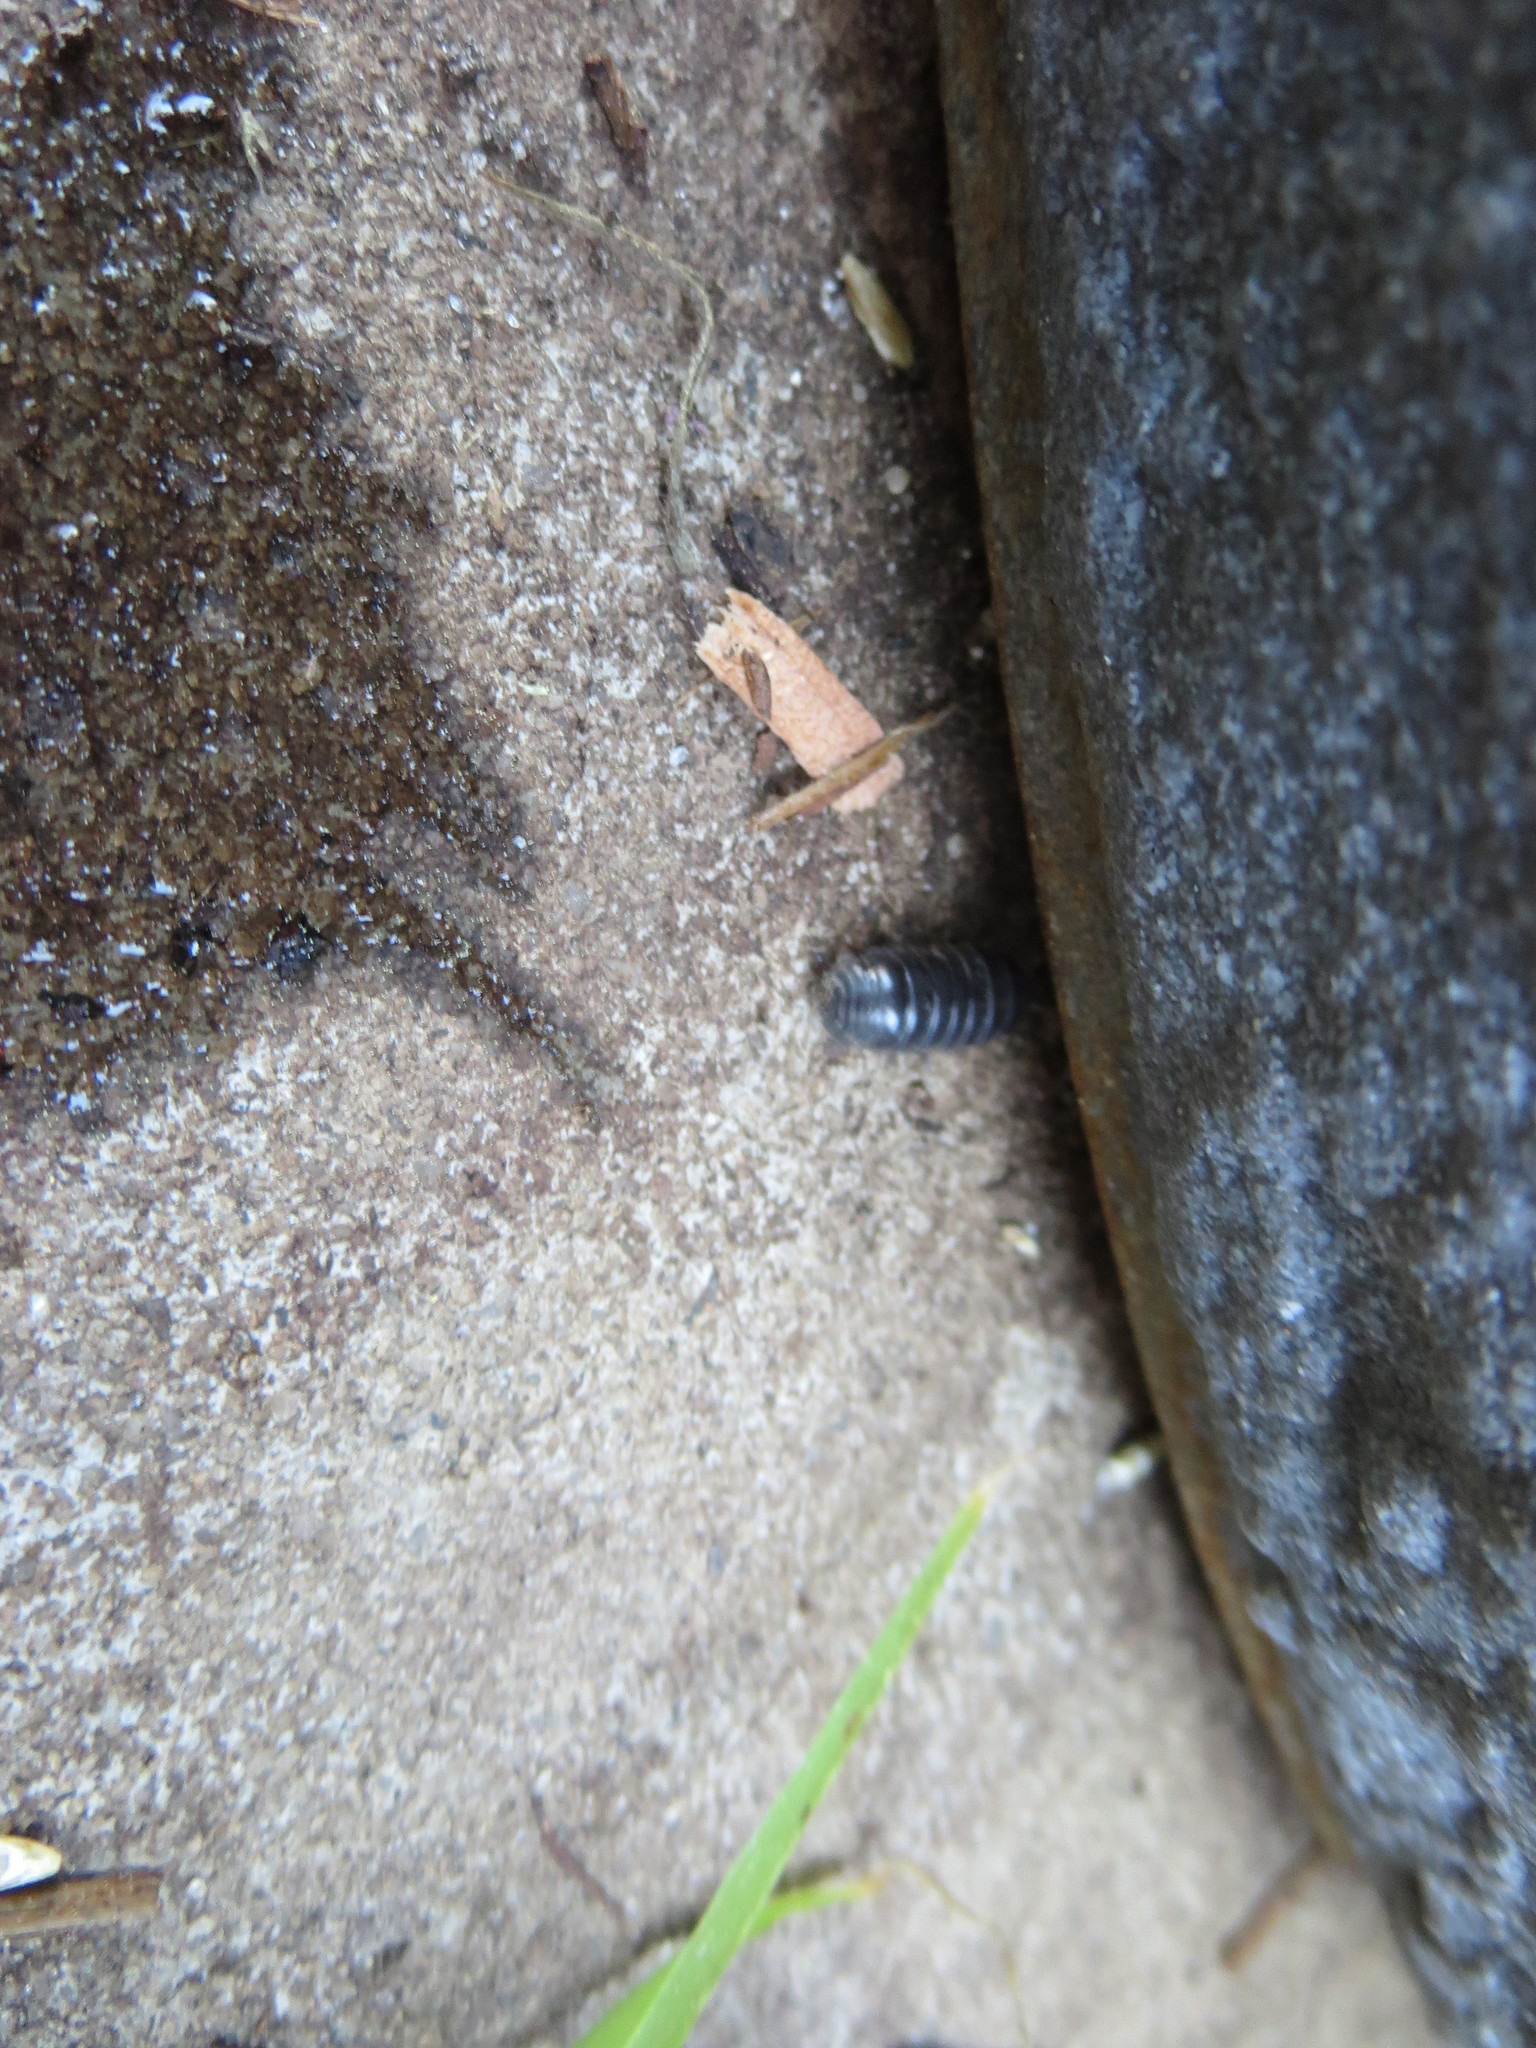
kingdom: Animalia
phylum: Arthropoda
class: Malacostraca
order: Isopoda
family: Armadillidiidae
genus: Armadillidium
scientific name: Armadillidium vulgare
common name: Common pill woodlouse
